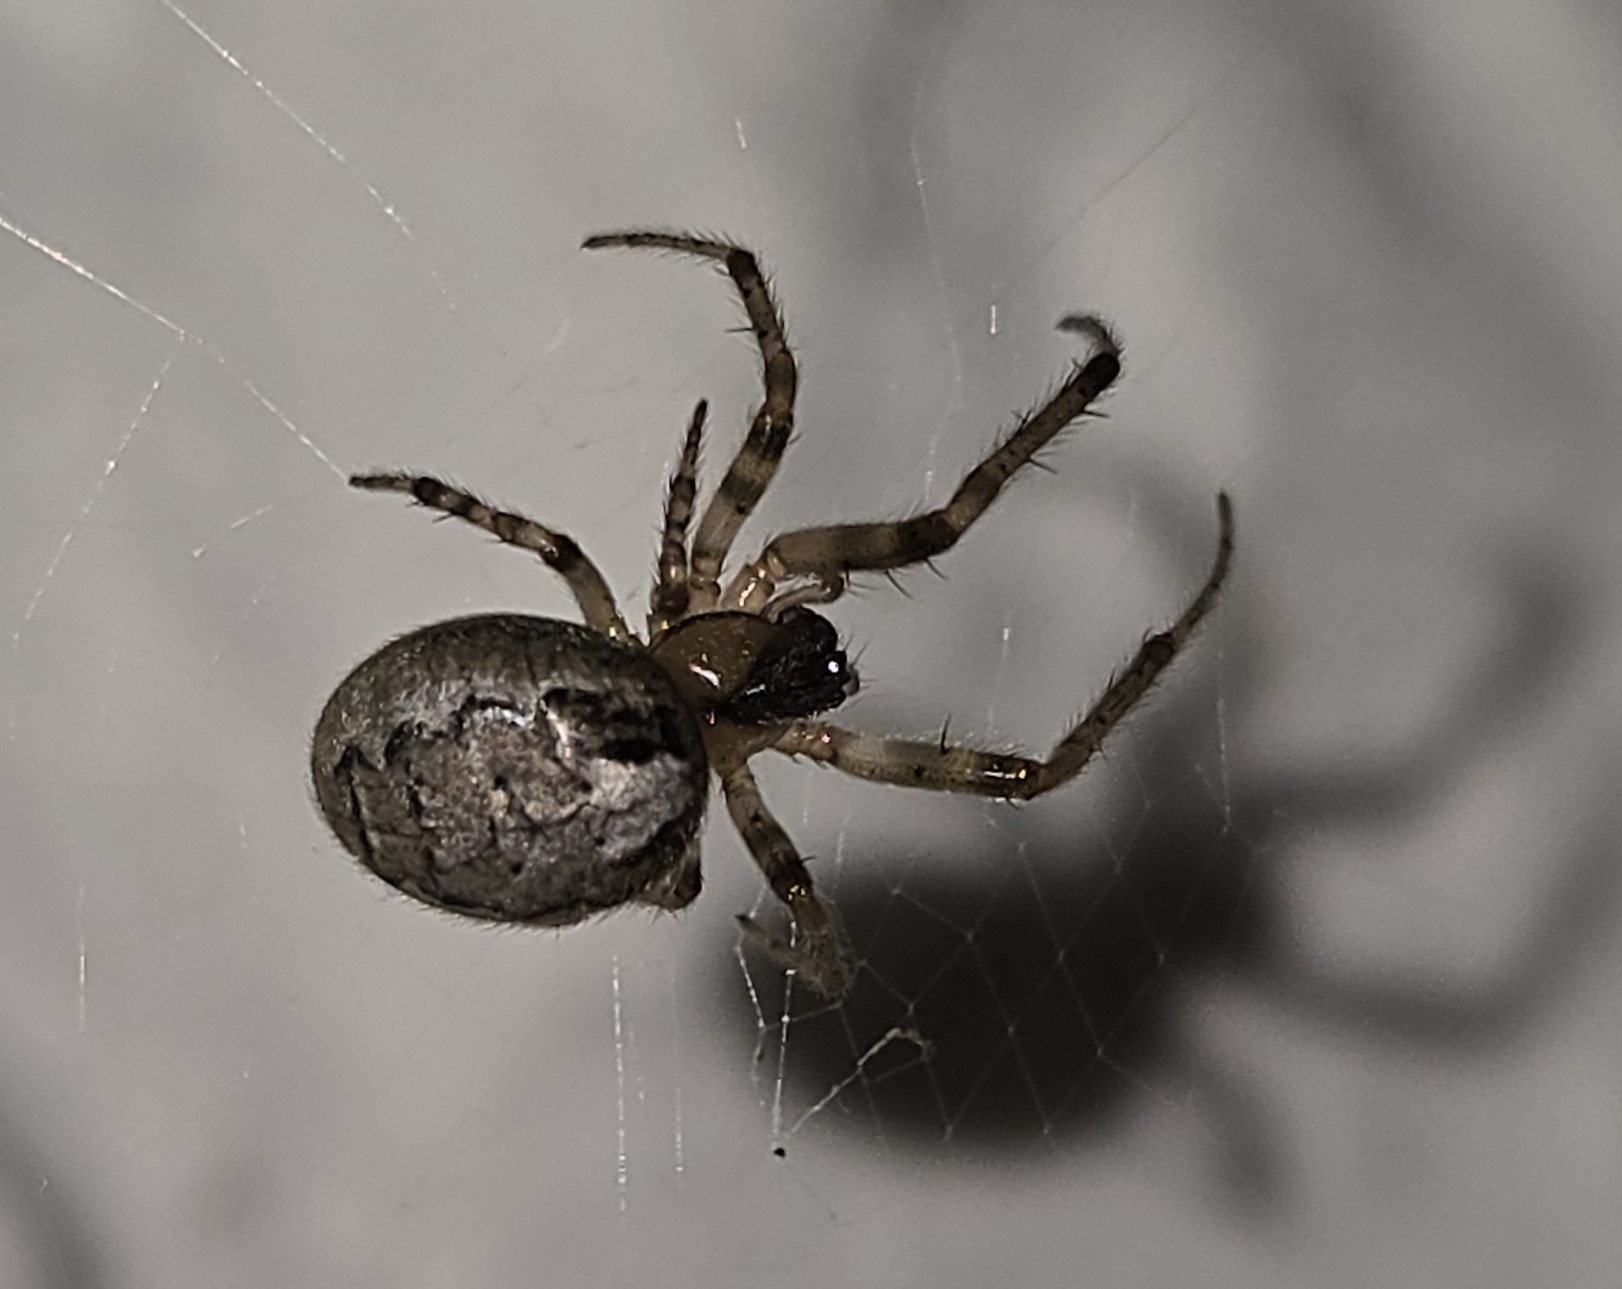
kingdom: Animalia
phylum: Arthropoda
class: Arachnida
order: Araneae
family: Araneidae
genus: Zygiella
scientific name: Zygiella x-notata
